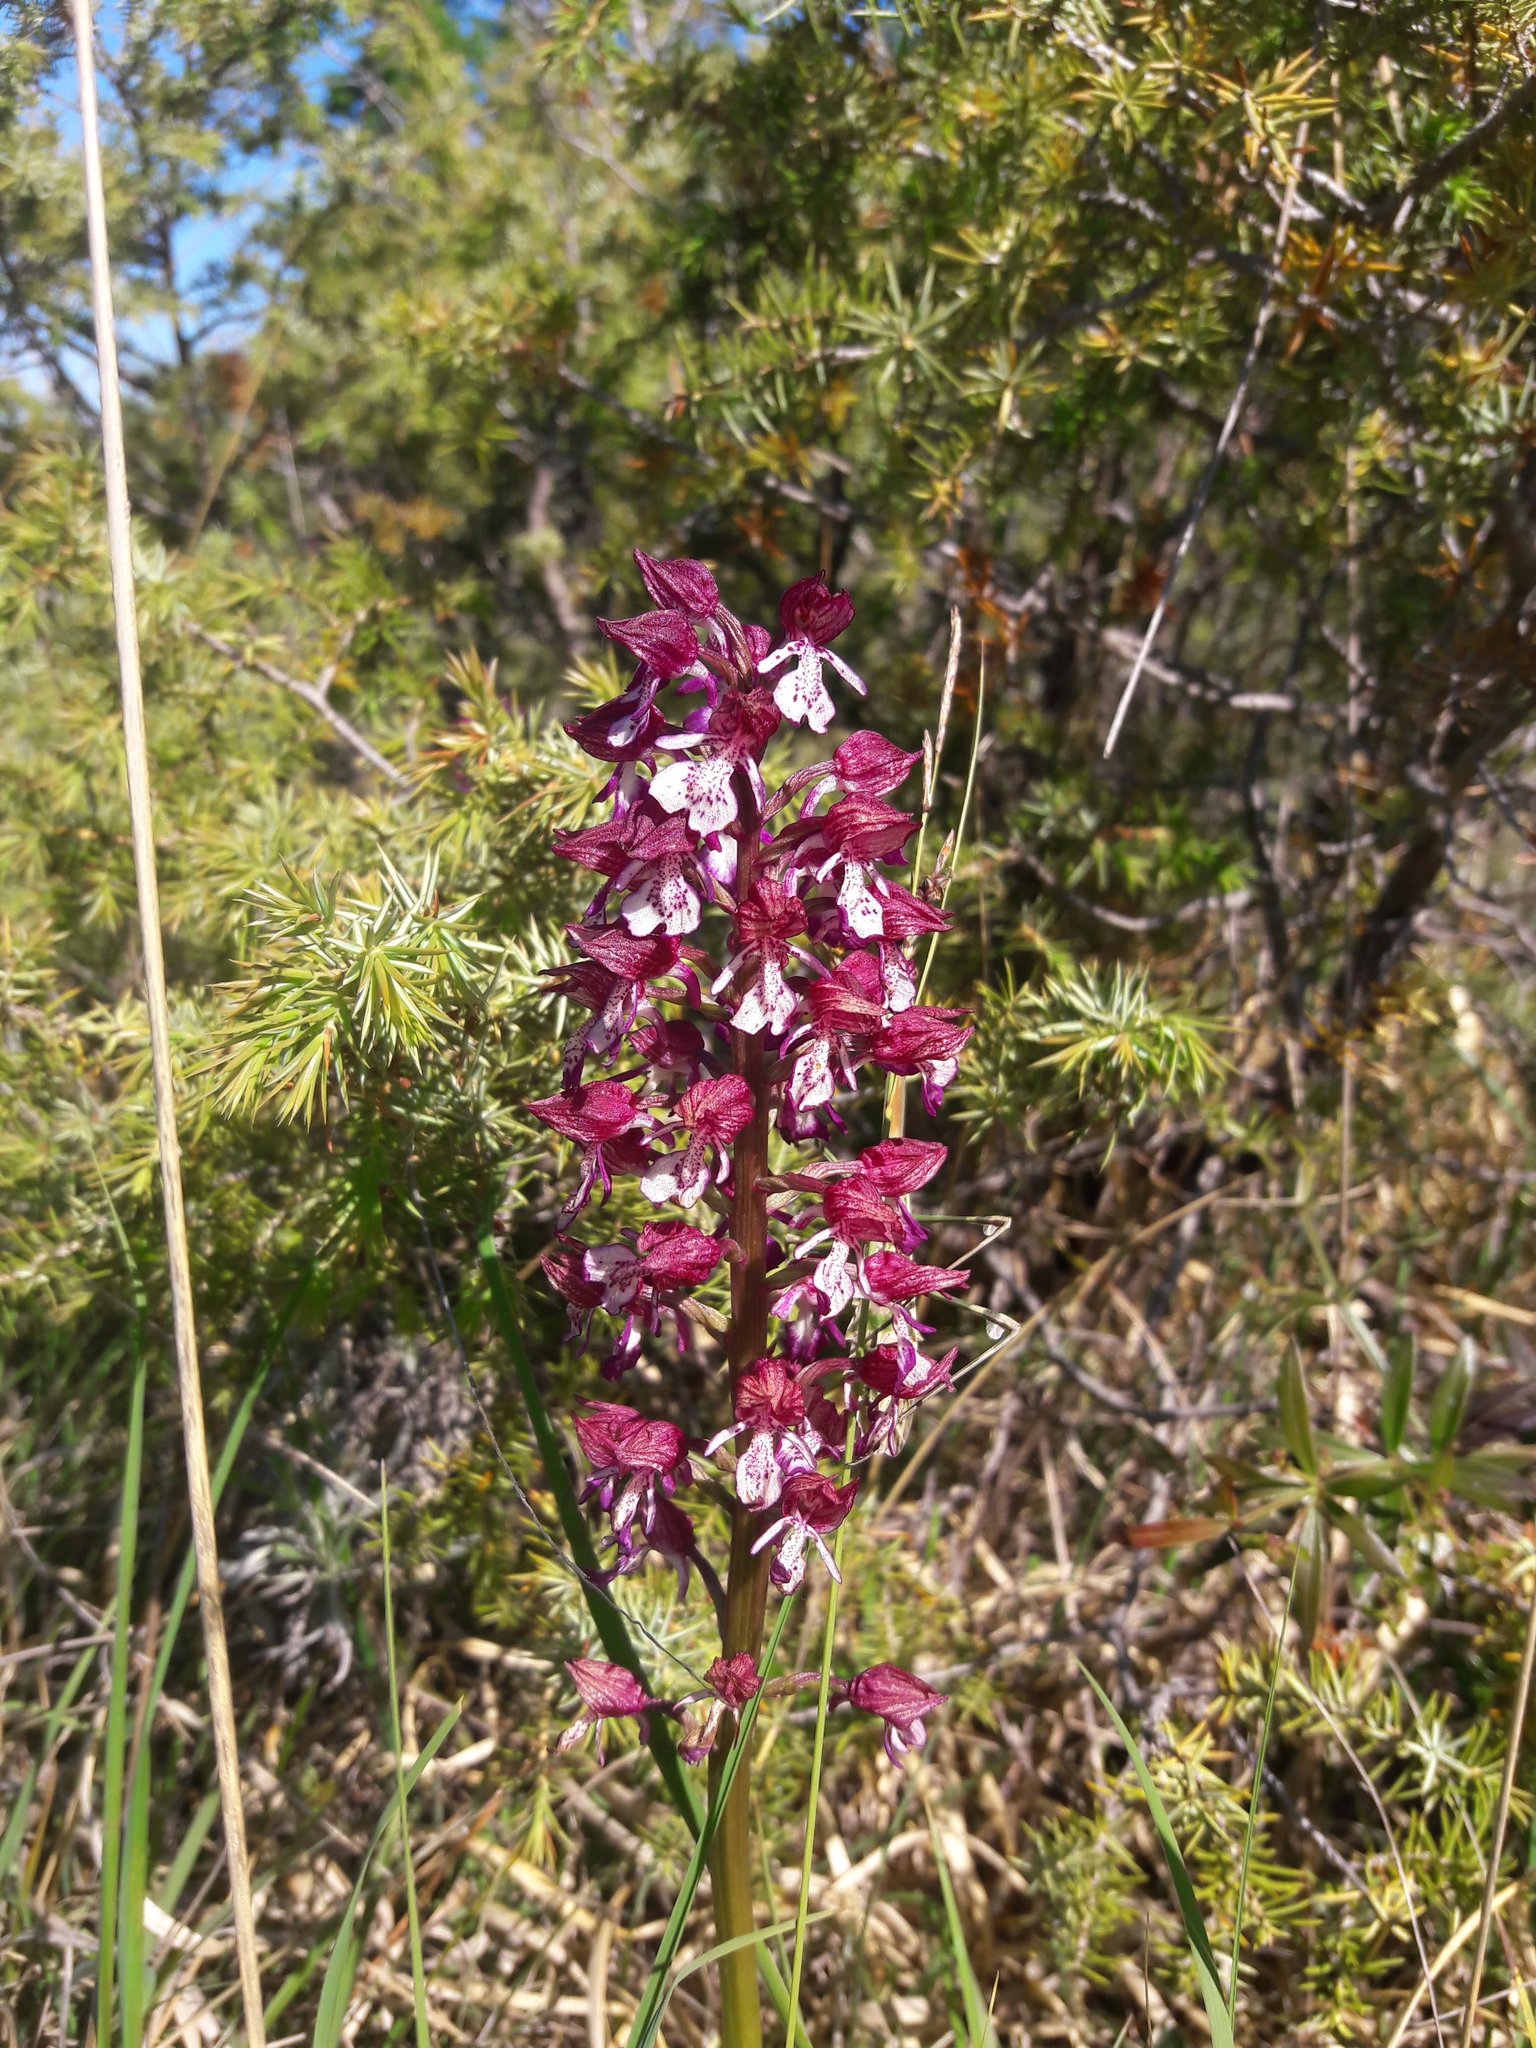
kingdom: Plantae
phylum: Tracheophyta
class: Liliopsida
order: Asparagales
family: Orchidaceae
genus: Orchis
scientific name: Orchis purpurea
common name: Lady orchid
